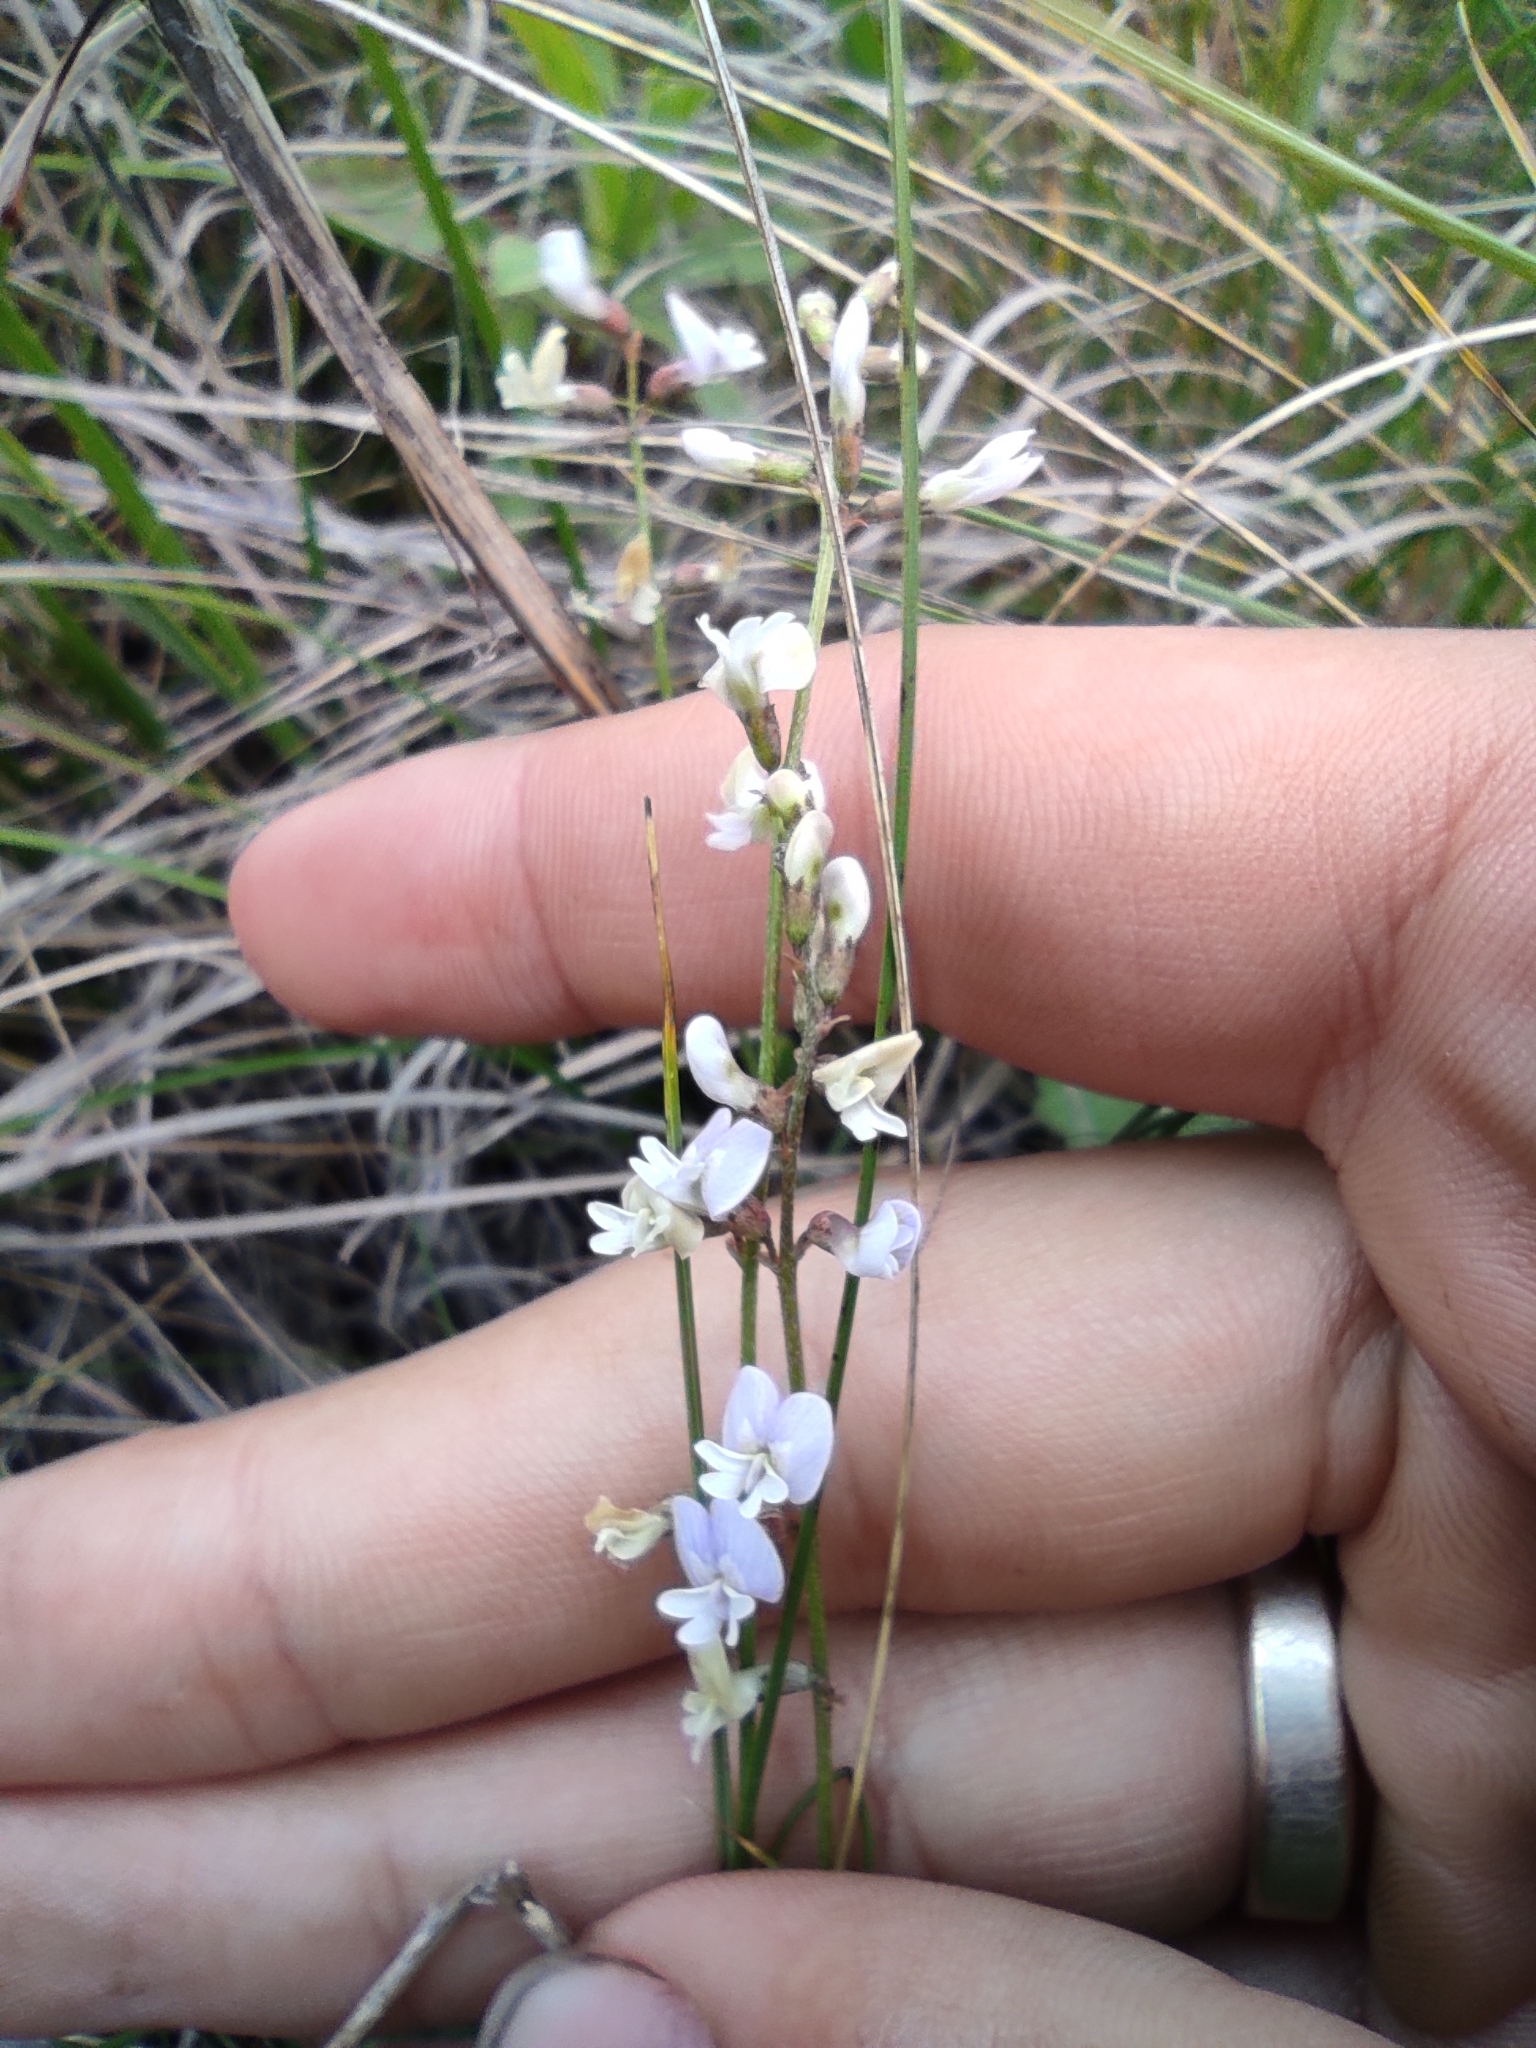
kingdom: Plantae
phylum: Tracheophyta
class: Magnoliopsida
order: Fabales
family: Fabaceae
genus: Astragalus
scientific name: Astragalus austriacus
